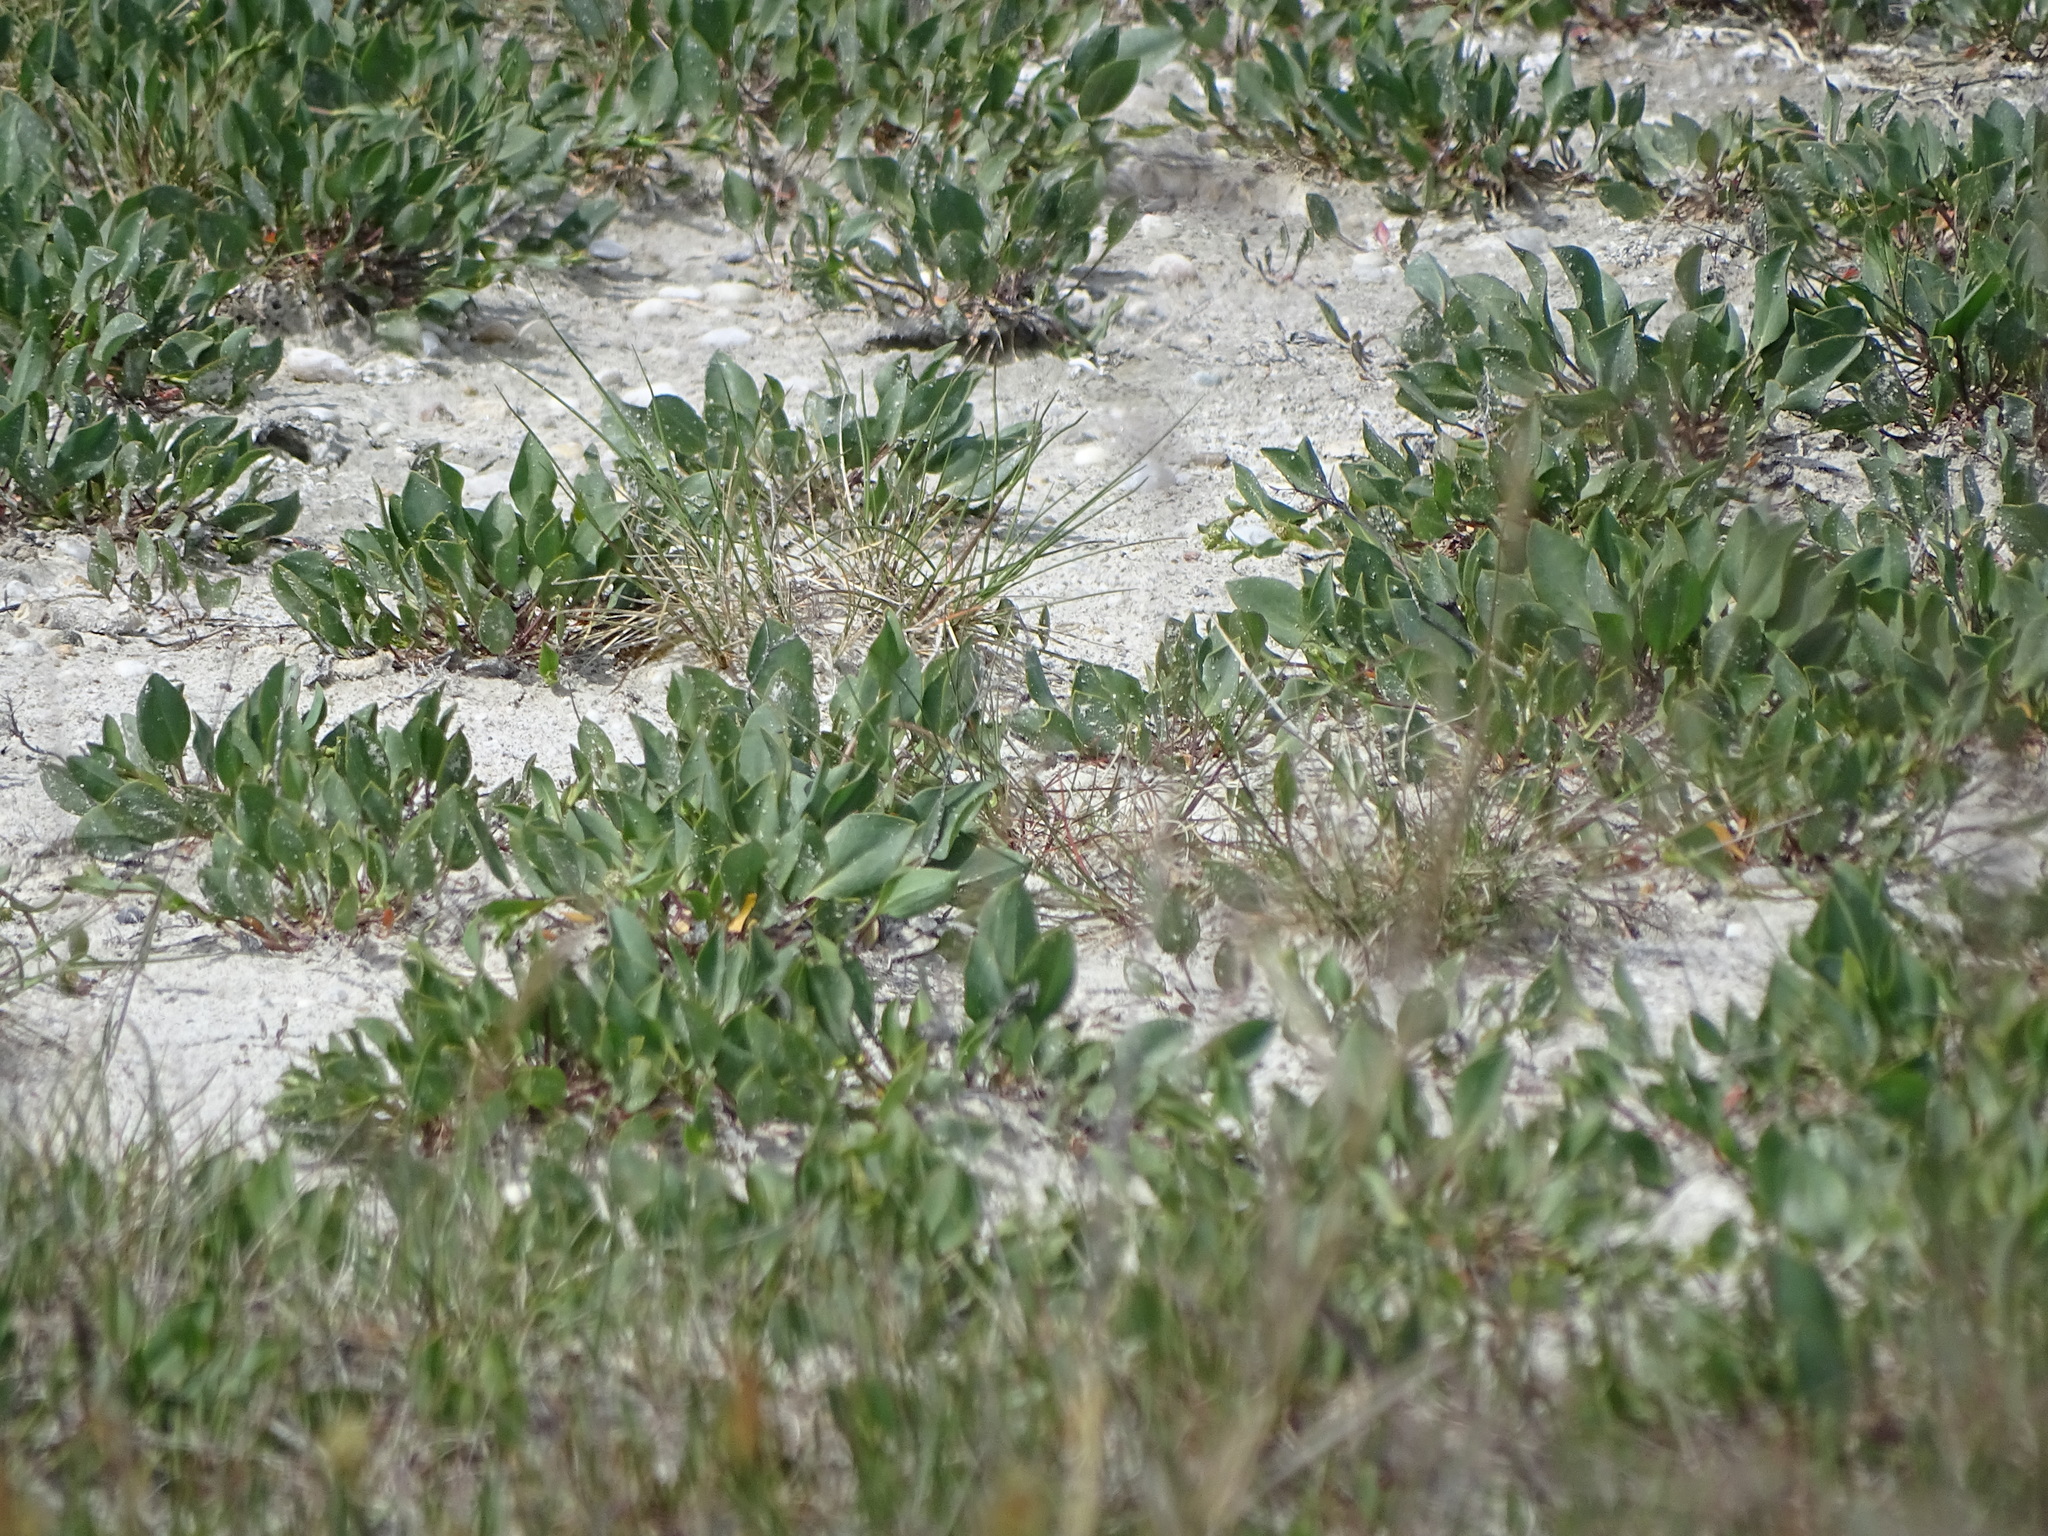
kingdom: Plantae
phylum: Tracheophyta
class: Magnoliopsida
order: Brassicales
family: Brassicaceae
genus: Lepidium
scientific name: Lepidium cartilagineum
